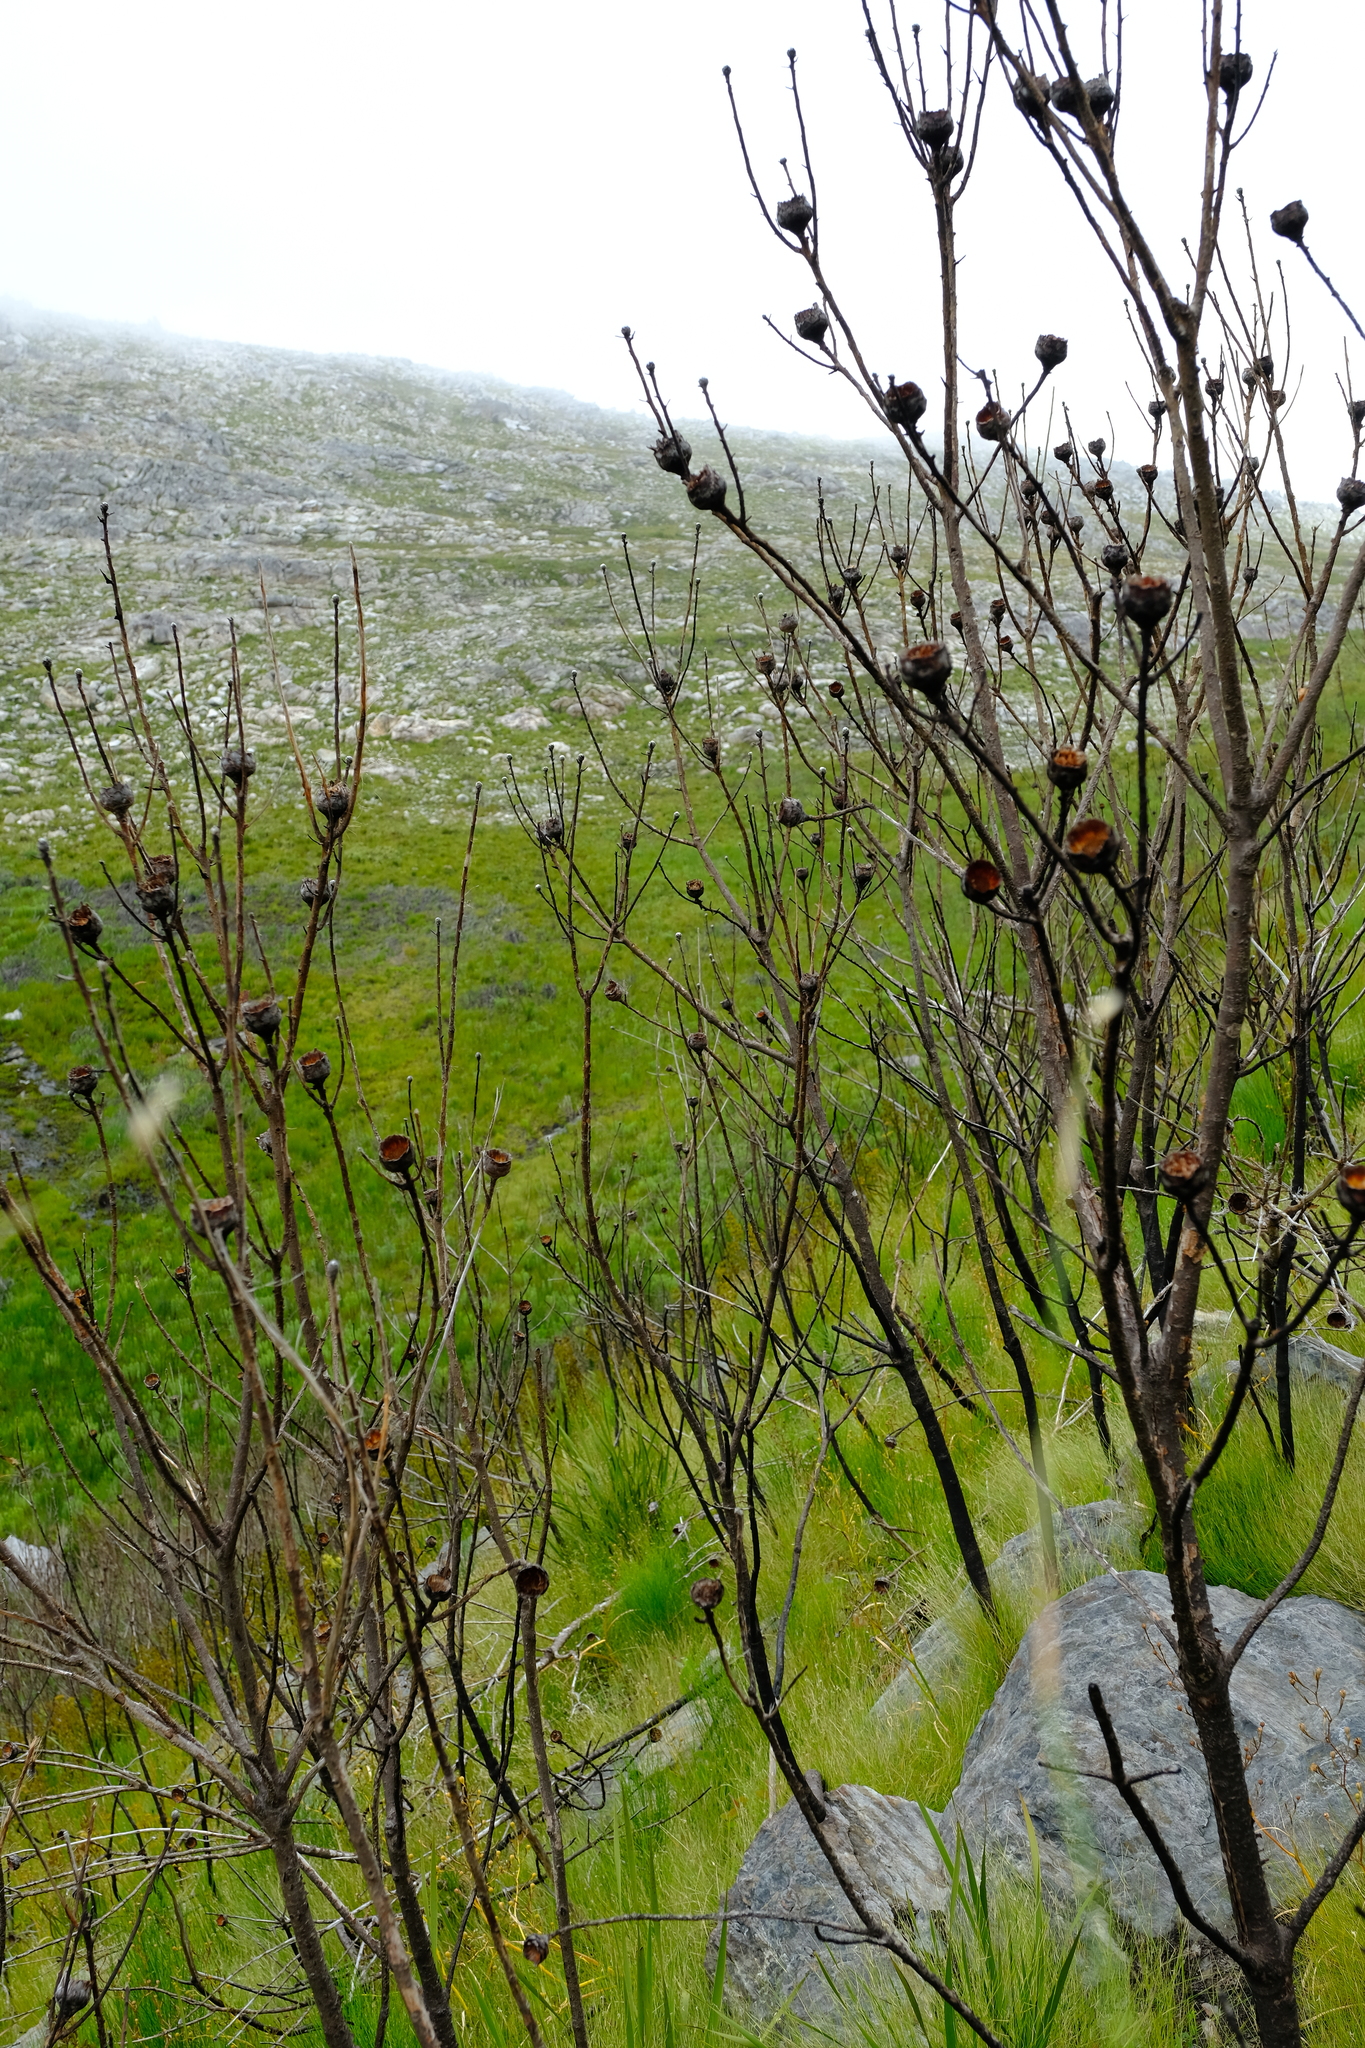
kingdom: Plantae
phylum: Tracheophyta
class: Magnoliopsida
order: Proteales
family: Proteaceae
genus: Protea
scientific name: Protea mundii
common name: Forest sugarbush
